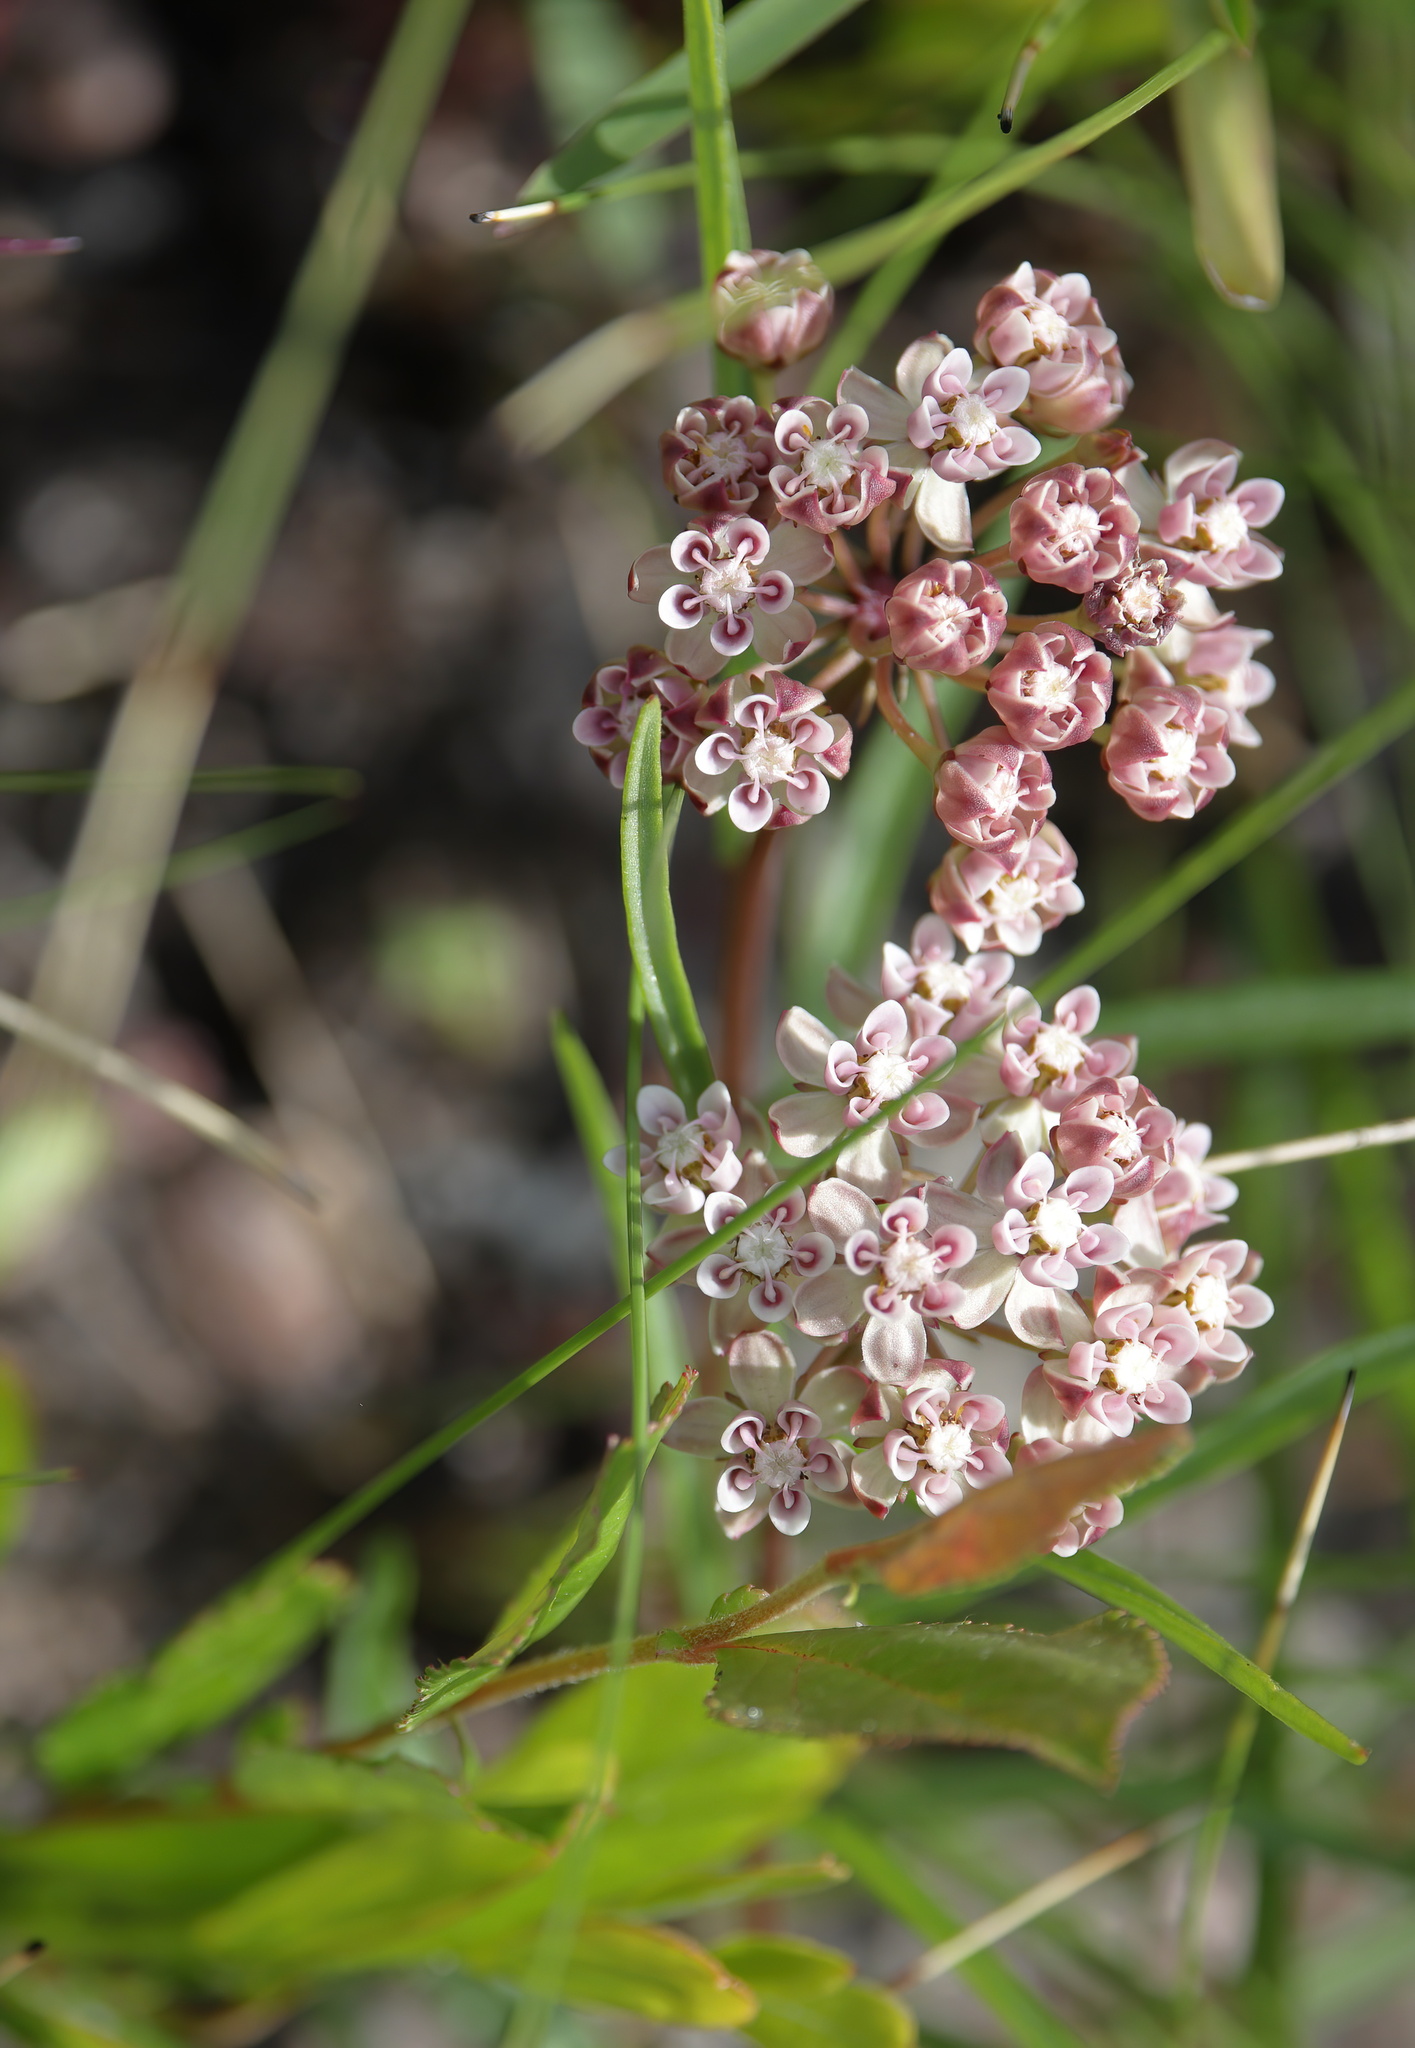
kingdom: Plantae
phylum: Tracheophyta
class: Magnoliopsida
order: Gentianales
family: Apocynaceae
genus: Asclepias
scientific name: Asclepias longifolia
